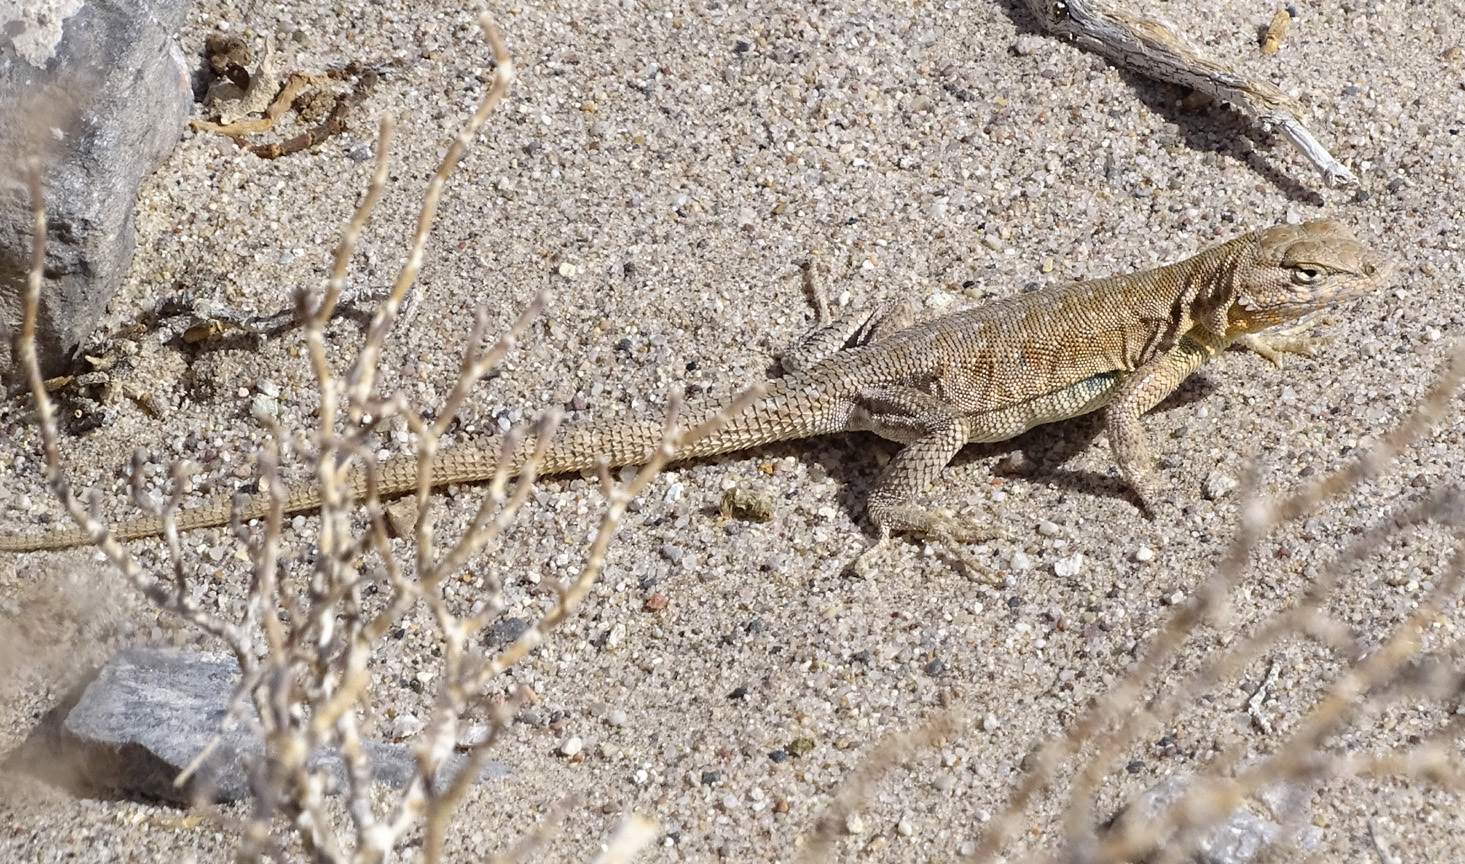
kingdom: Animalia
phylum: Chordata
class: Squamata
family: Phrynosomatidae
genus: Uta
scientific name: Uta stansburiana
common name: Side-blotched lizard
